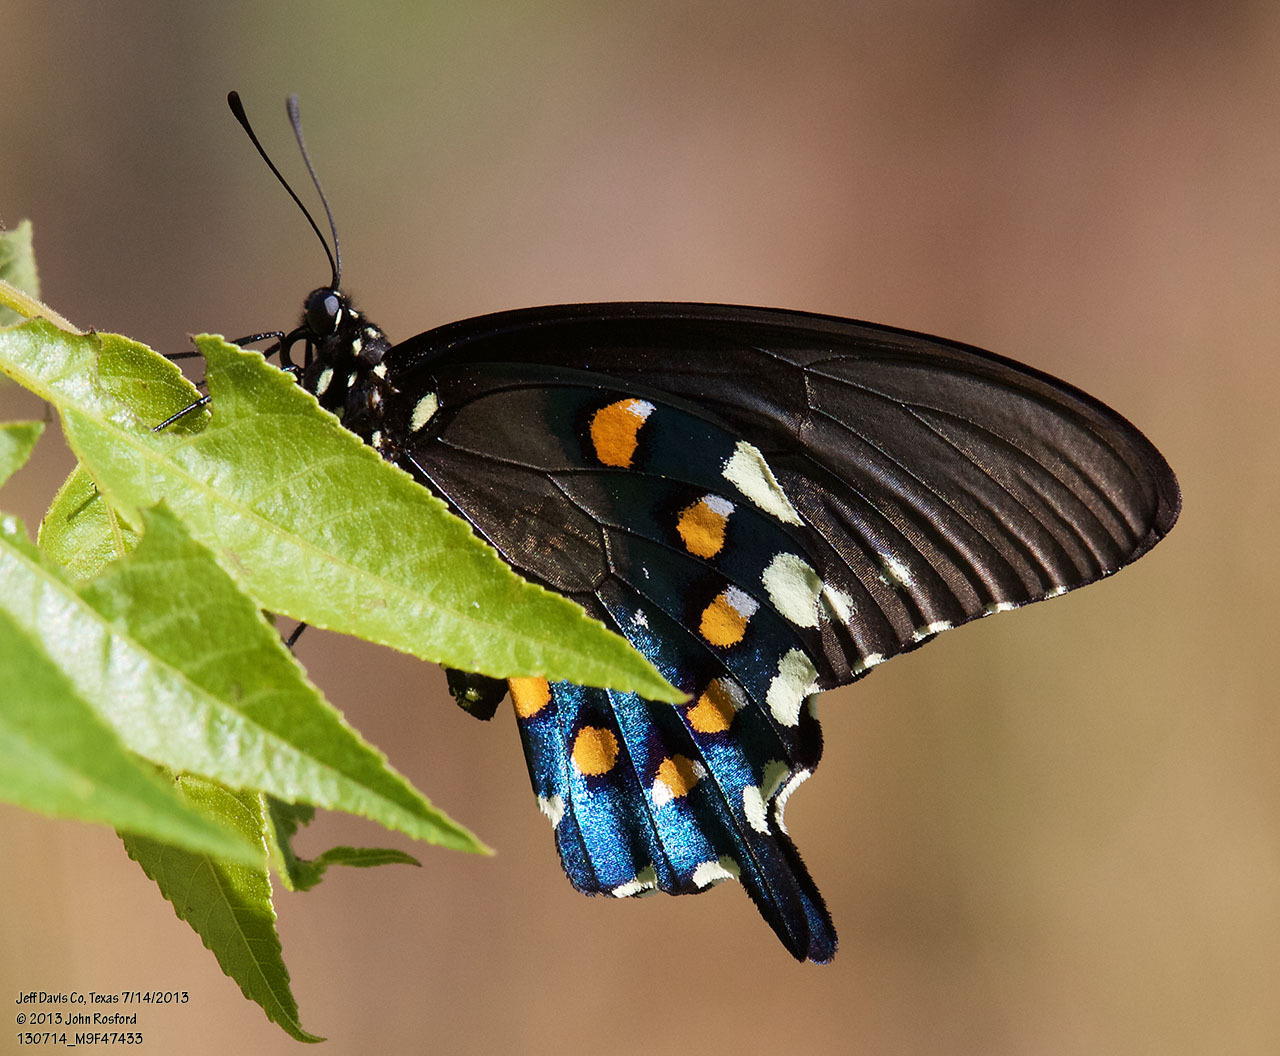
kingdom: Animalia
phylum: Arthropoda
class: Insecta
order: Lepidoptera
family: Papilionidae
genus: Battus
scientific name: Battus philenor
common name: Pipevine swallowtail
